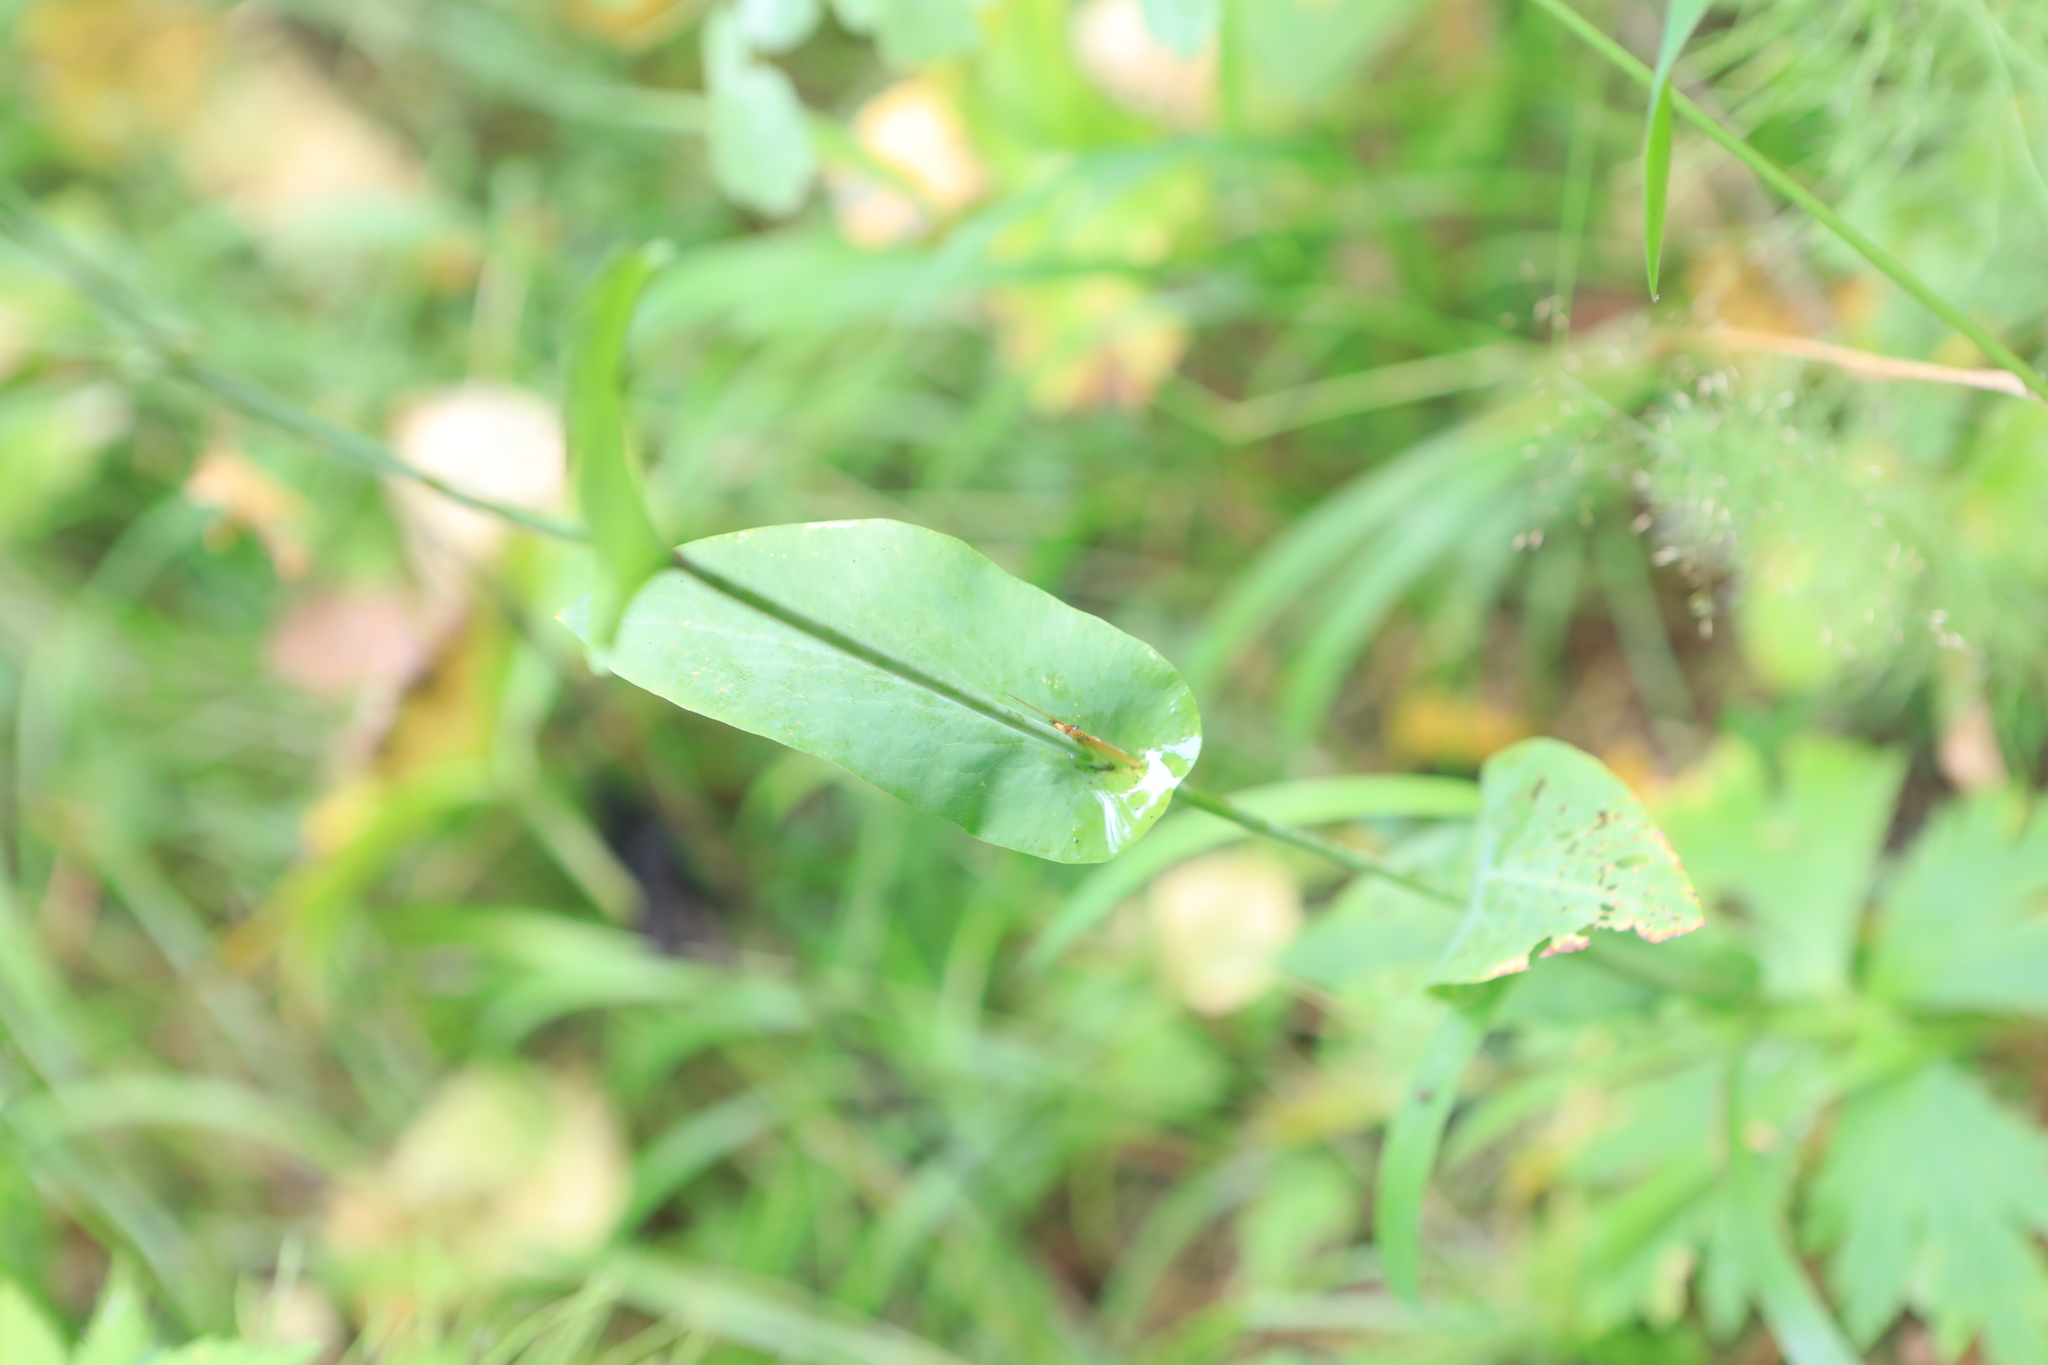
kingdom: Plantae
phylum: Tracheophyta
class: Magnoliopsida
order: Apiales
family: Apiaceae
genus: Bupleurum
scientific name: Bupleurum aureum
